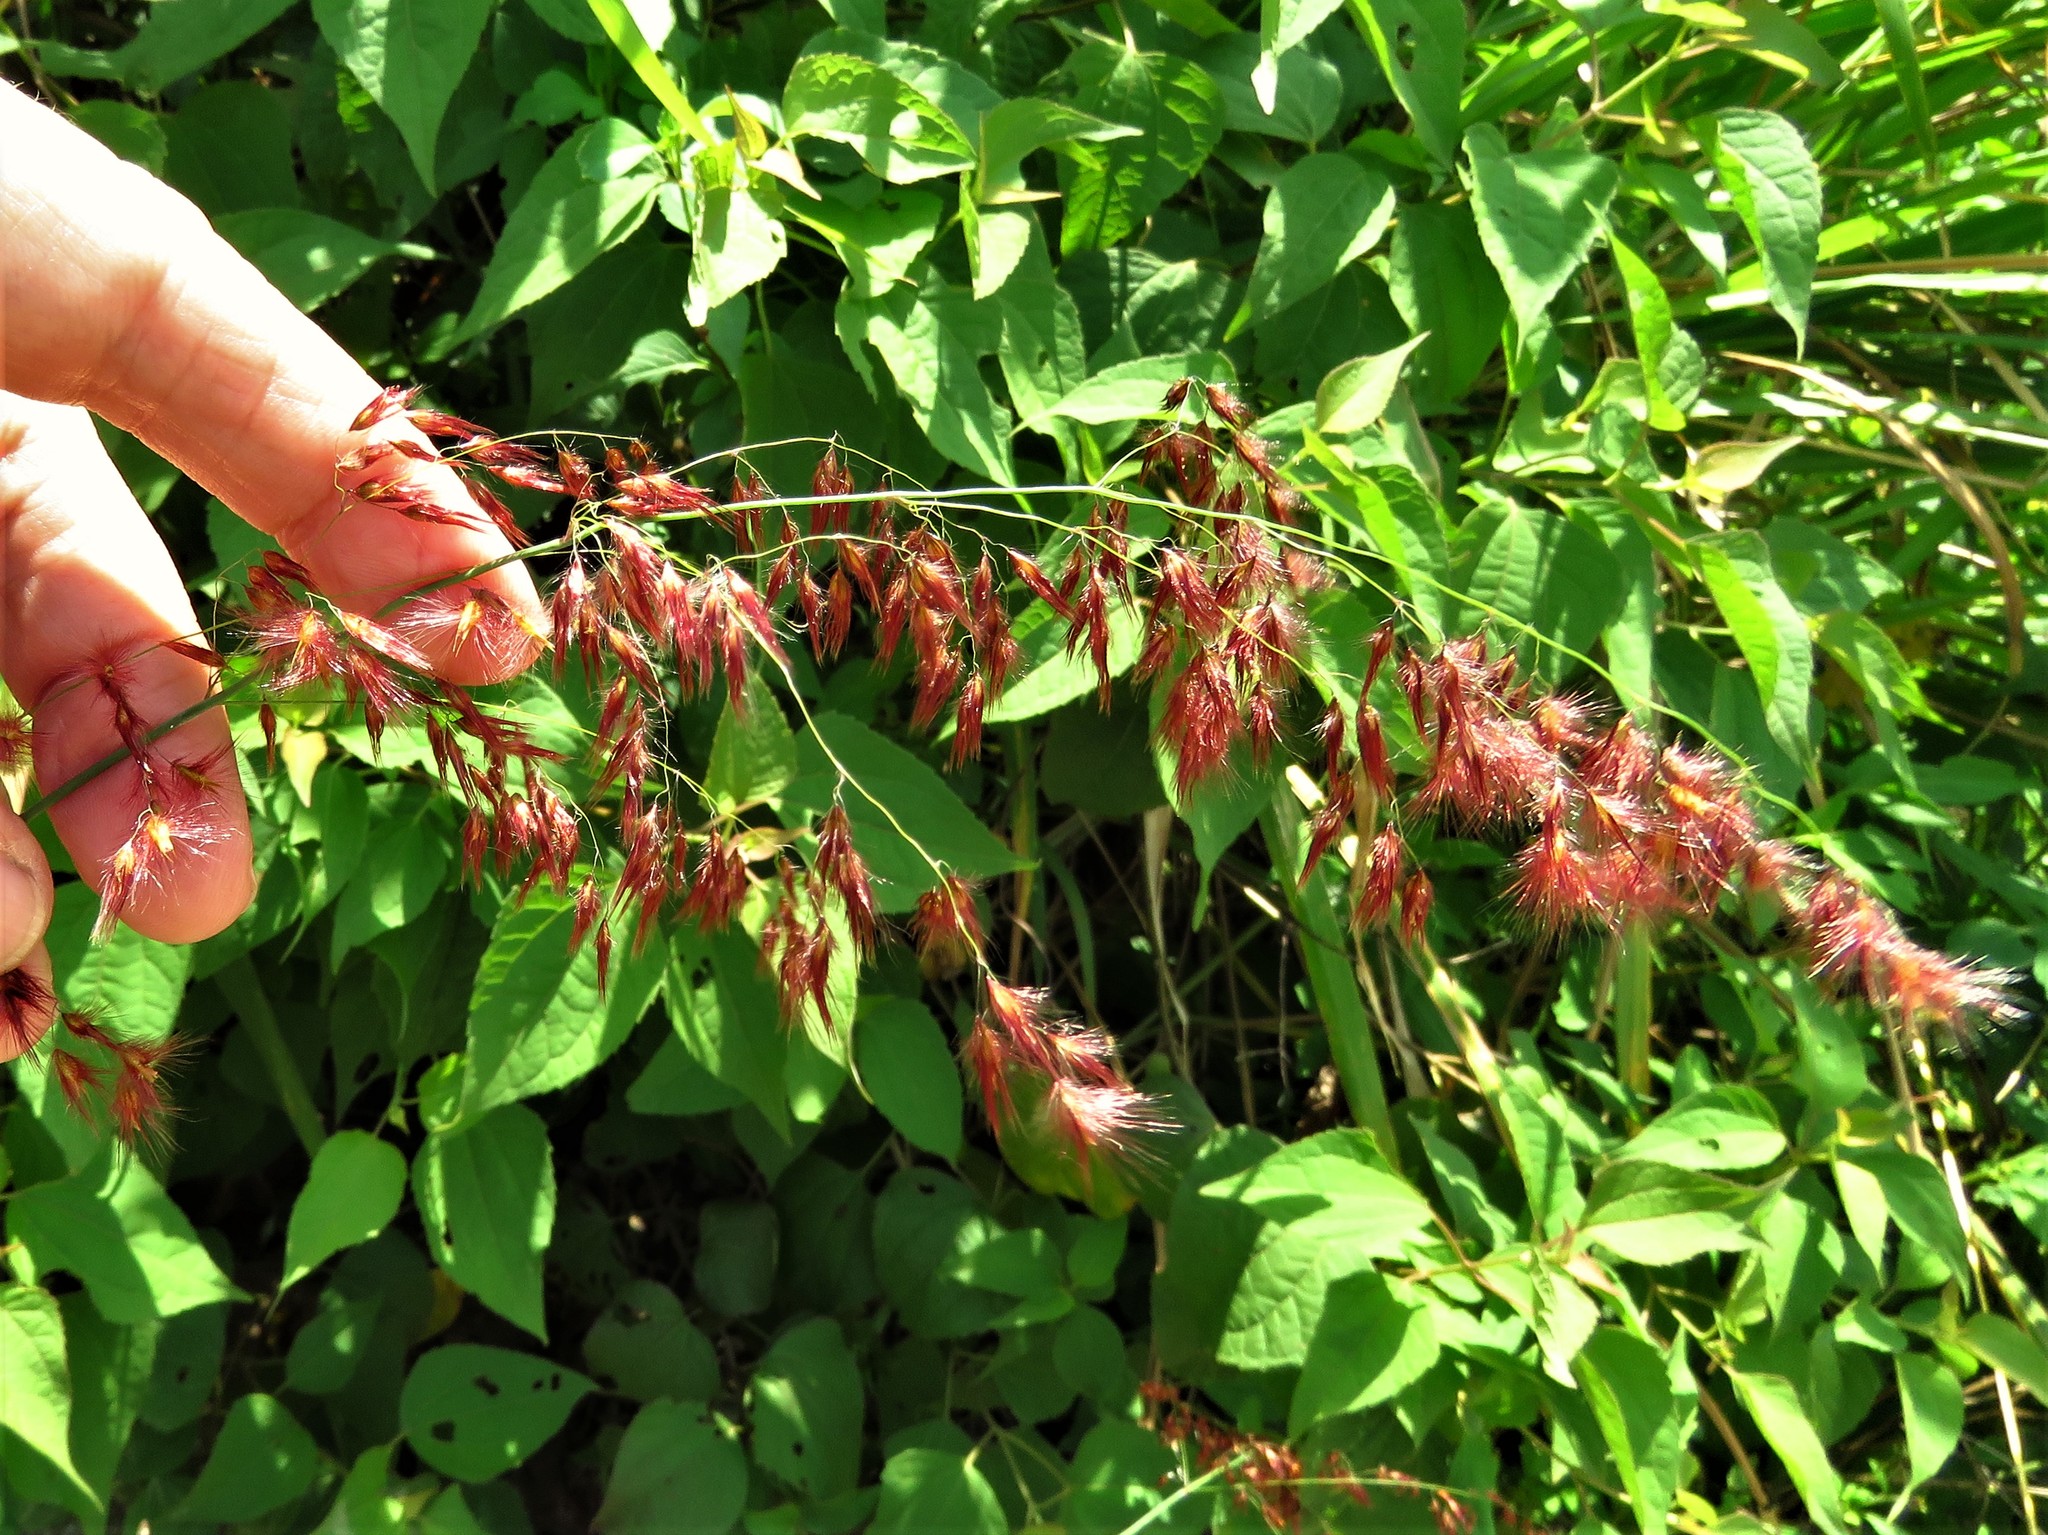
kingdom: Plantae
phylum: Tracheophyta
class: Liliopsida
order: Poales
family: Poaceae
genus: Melinis
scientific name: Melinis repens
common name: Rose natal grass
